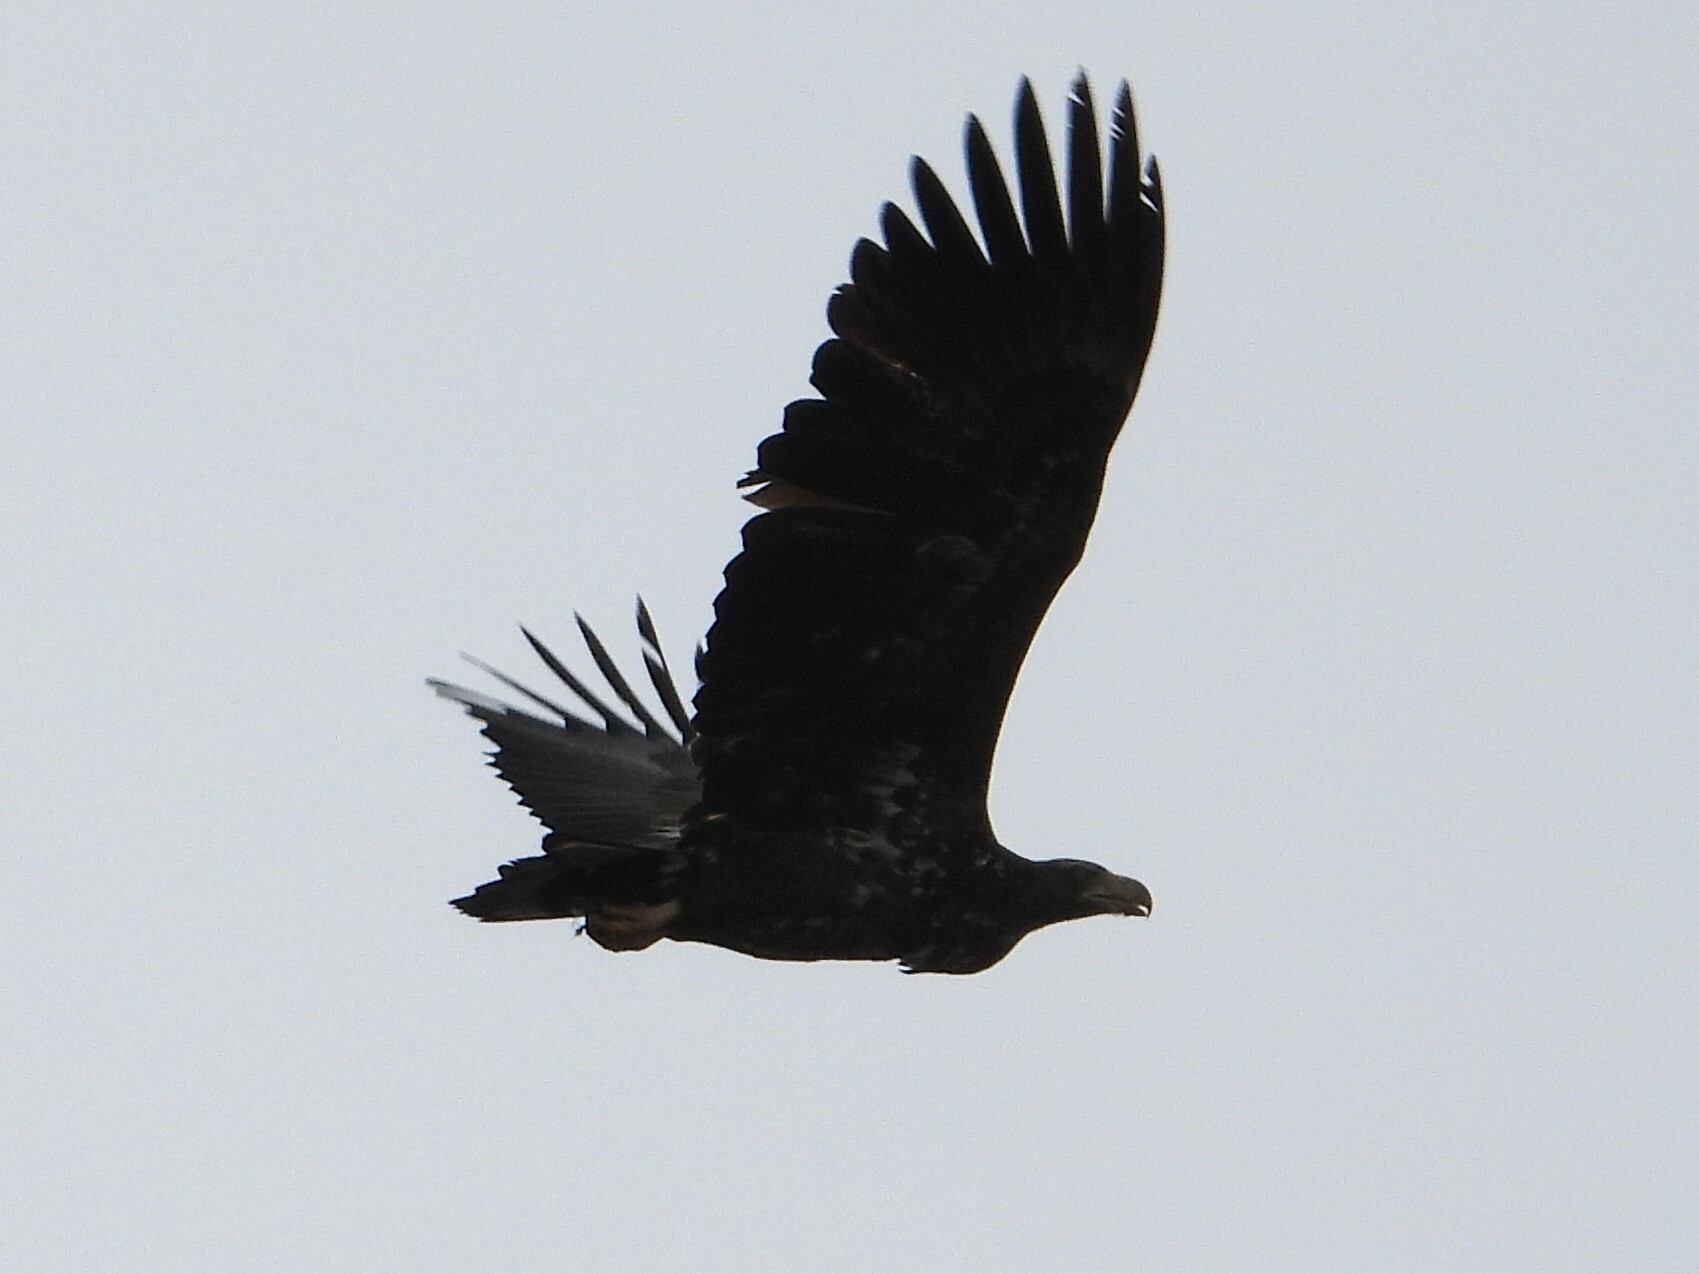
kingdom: Animalia
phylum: Chordata
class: Aves
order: Accipitriformes
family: Accipitridae
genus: Haliaeetus
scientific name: Haliaeetus albicilla
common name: White-tailed eagle
